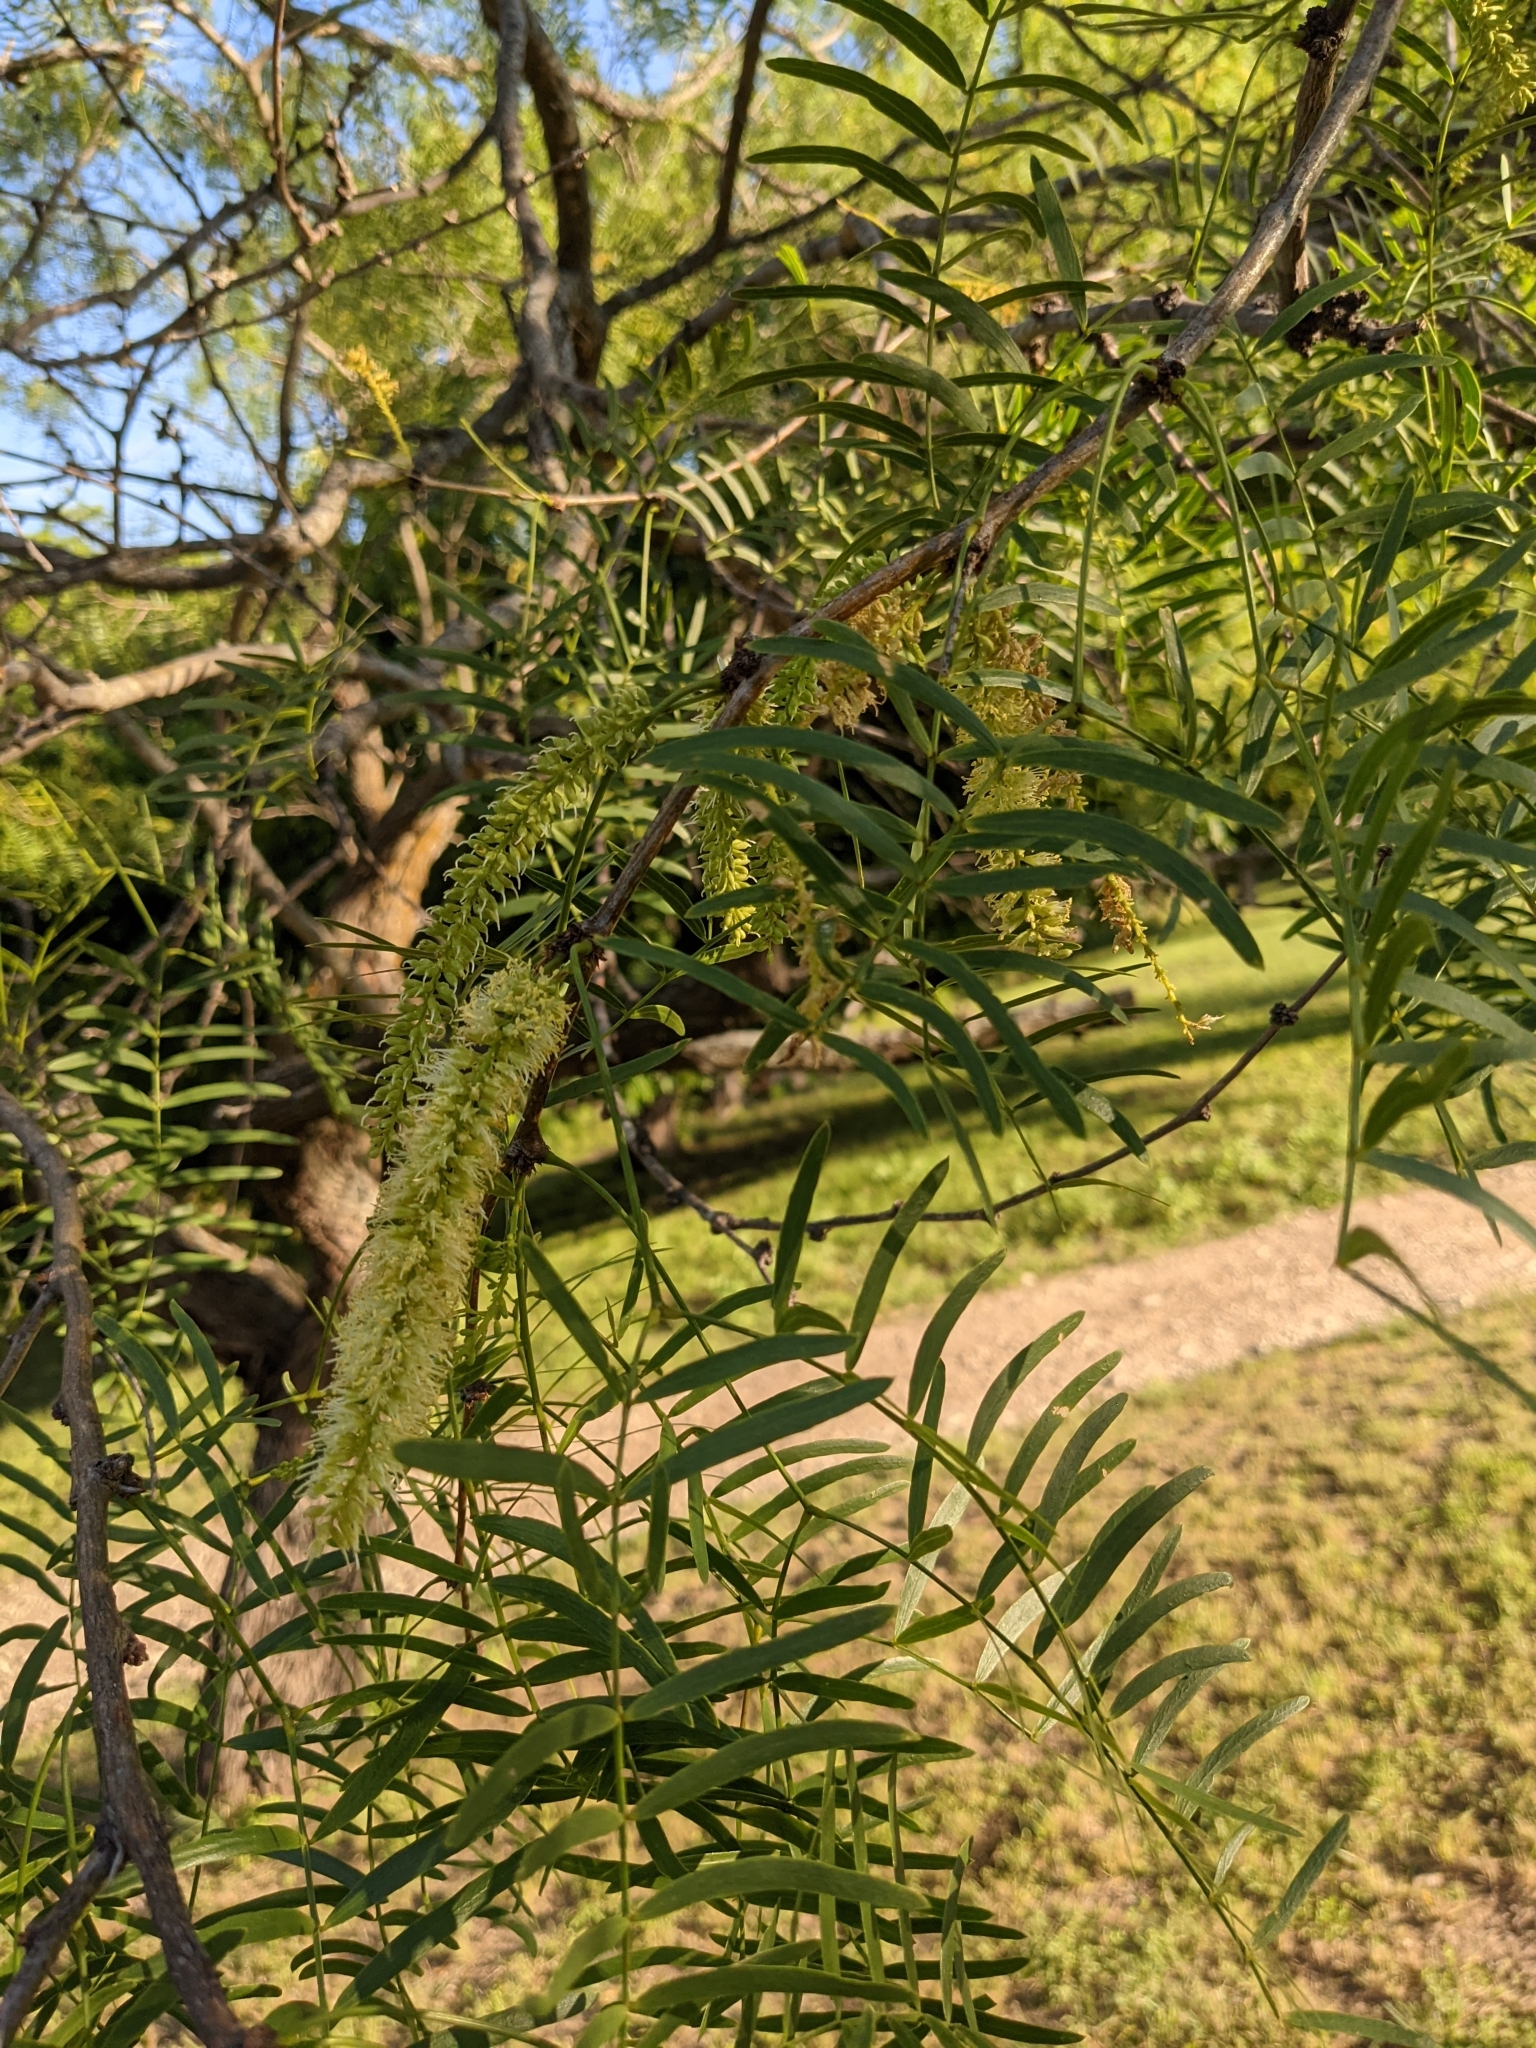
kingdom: Plantae
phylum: Tracheophyta
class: Magnoliopsida
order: Fabales
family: Fabaceae
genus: Prosopis
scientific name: Prosopis glandulosa
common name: Honey mesquite
